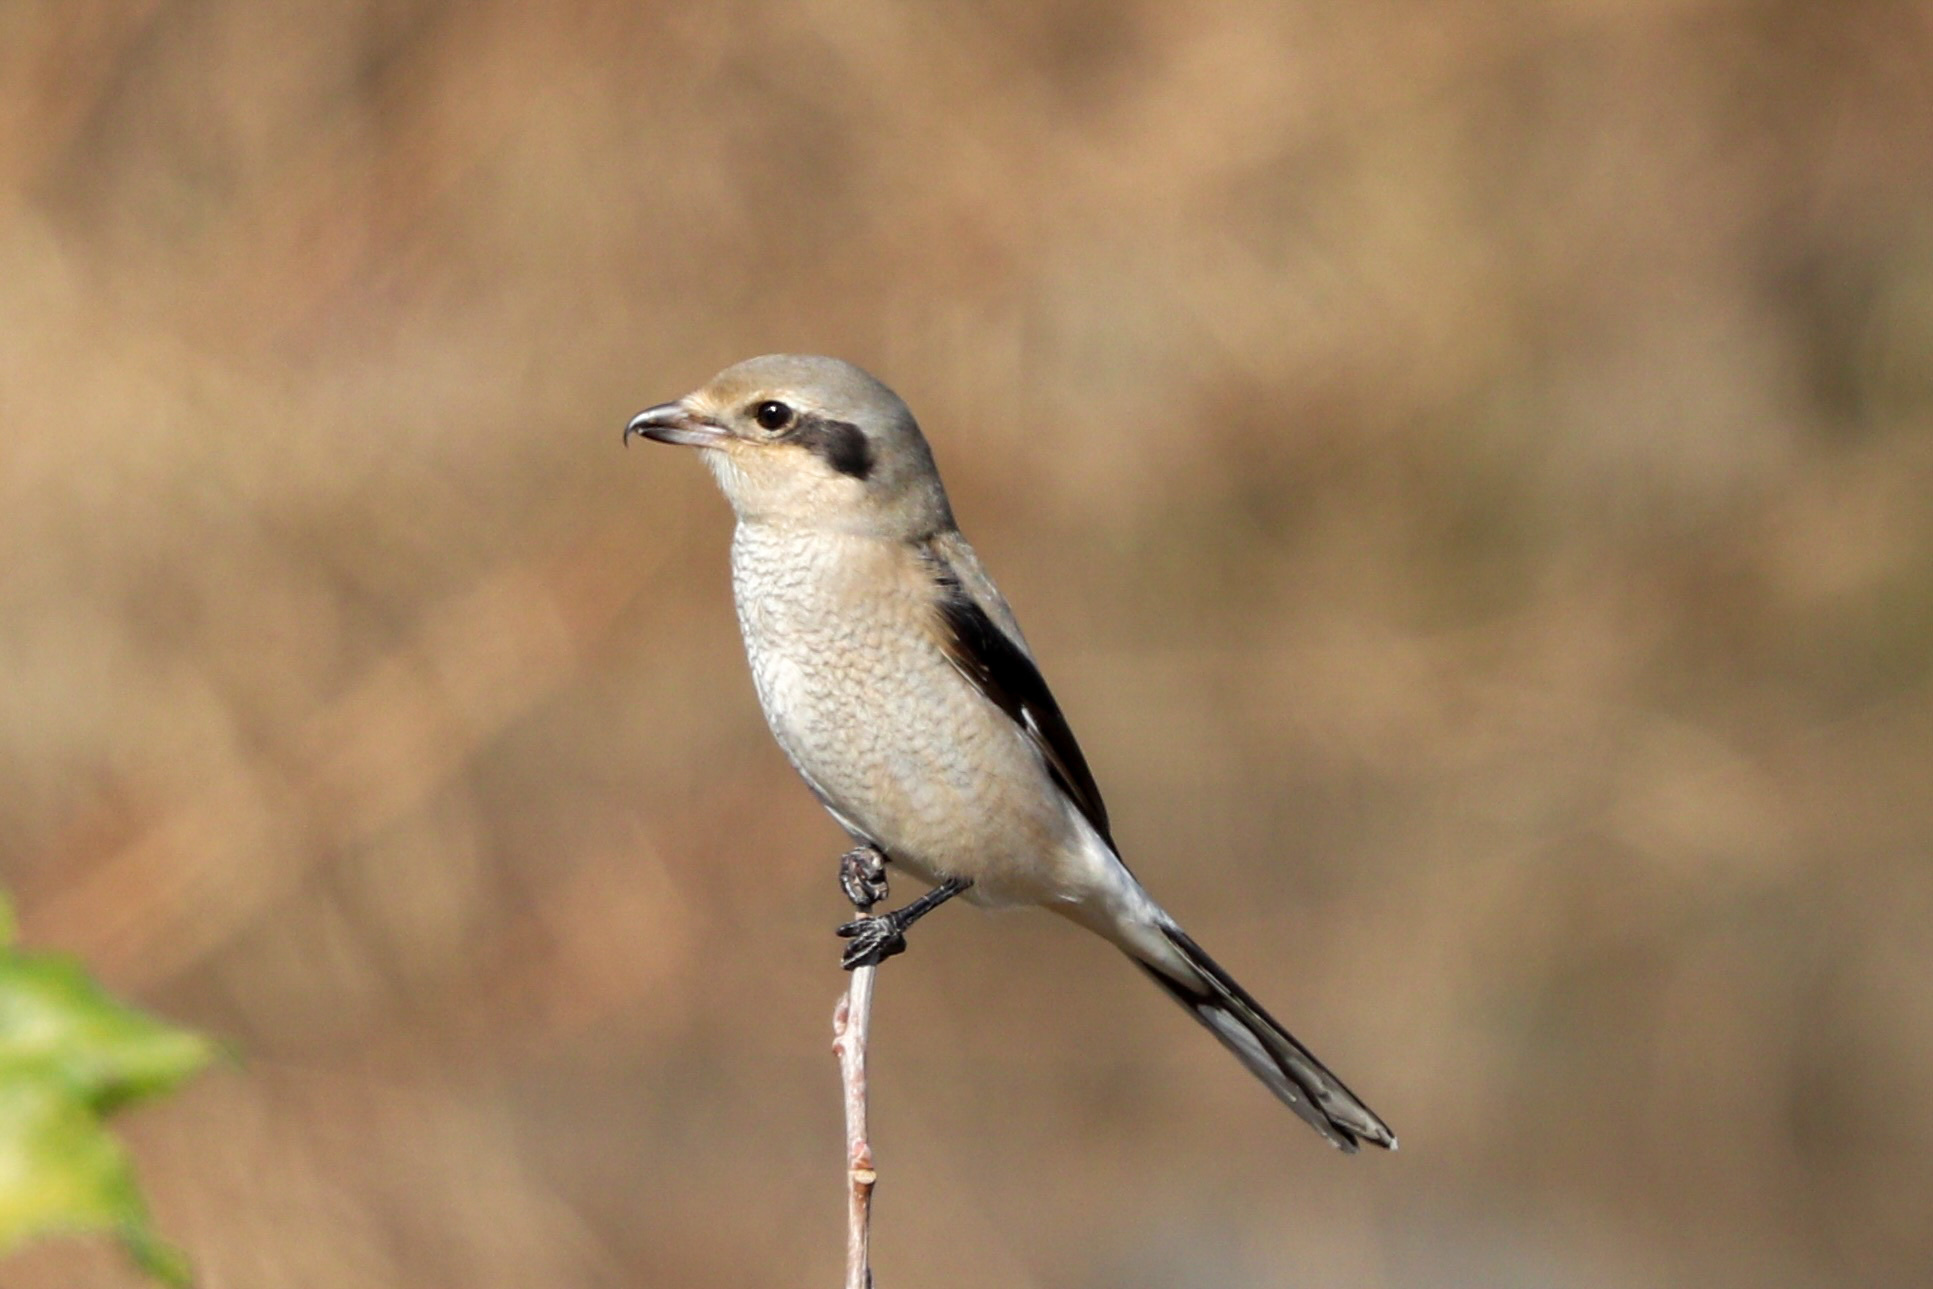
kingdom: Animalia
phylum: Chordata
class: Aves
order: Passeriformes
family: Laniidae
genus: Lanius
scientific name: Lanius borealis
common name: Northern shrike
